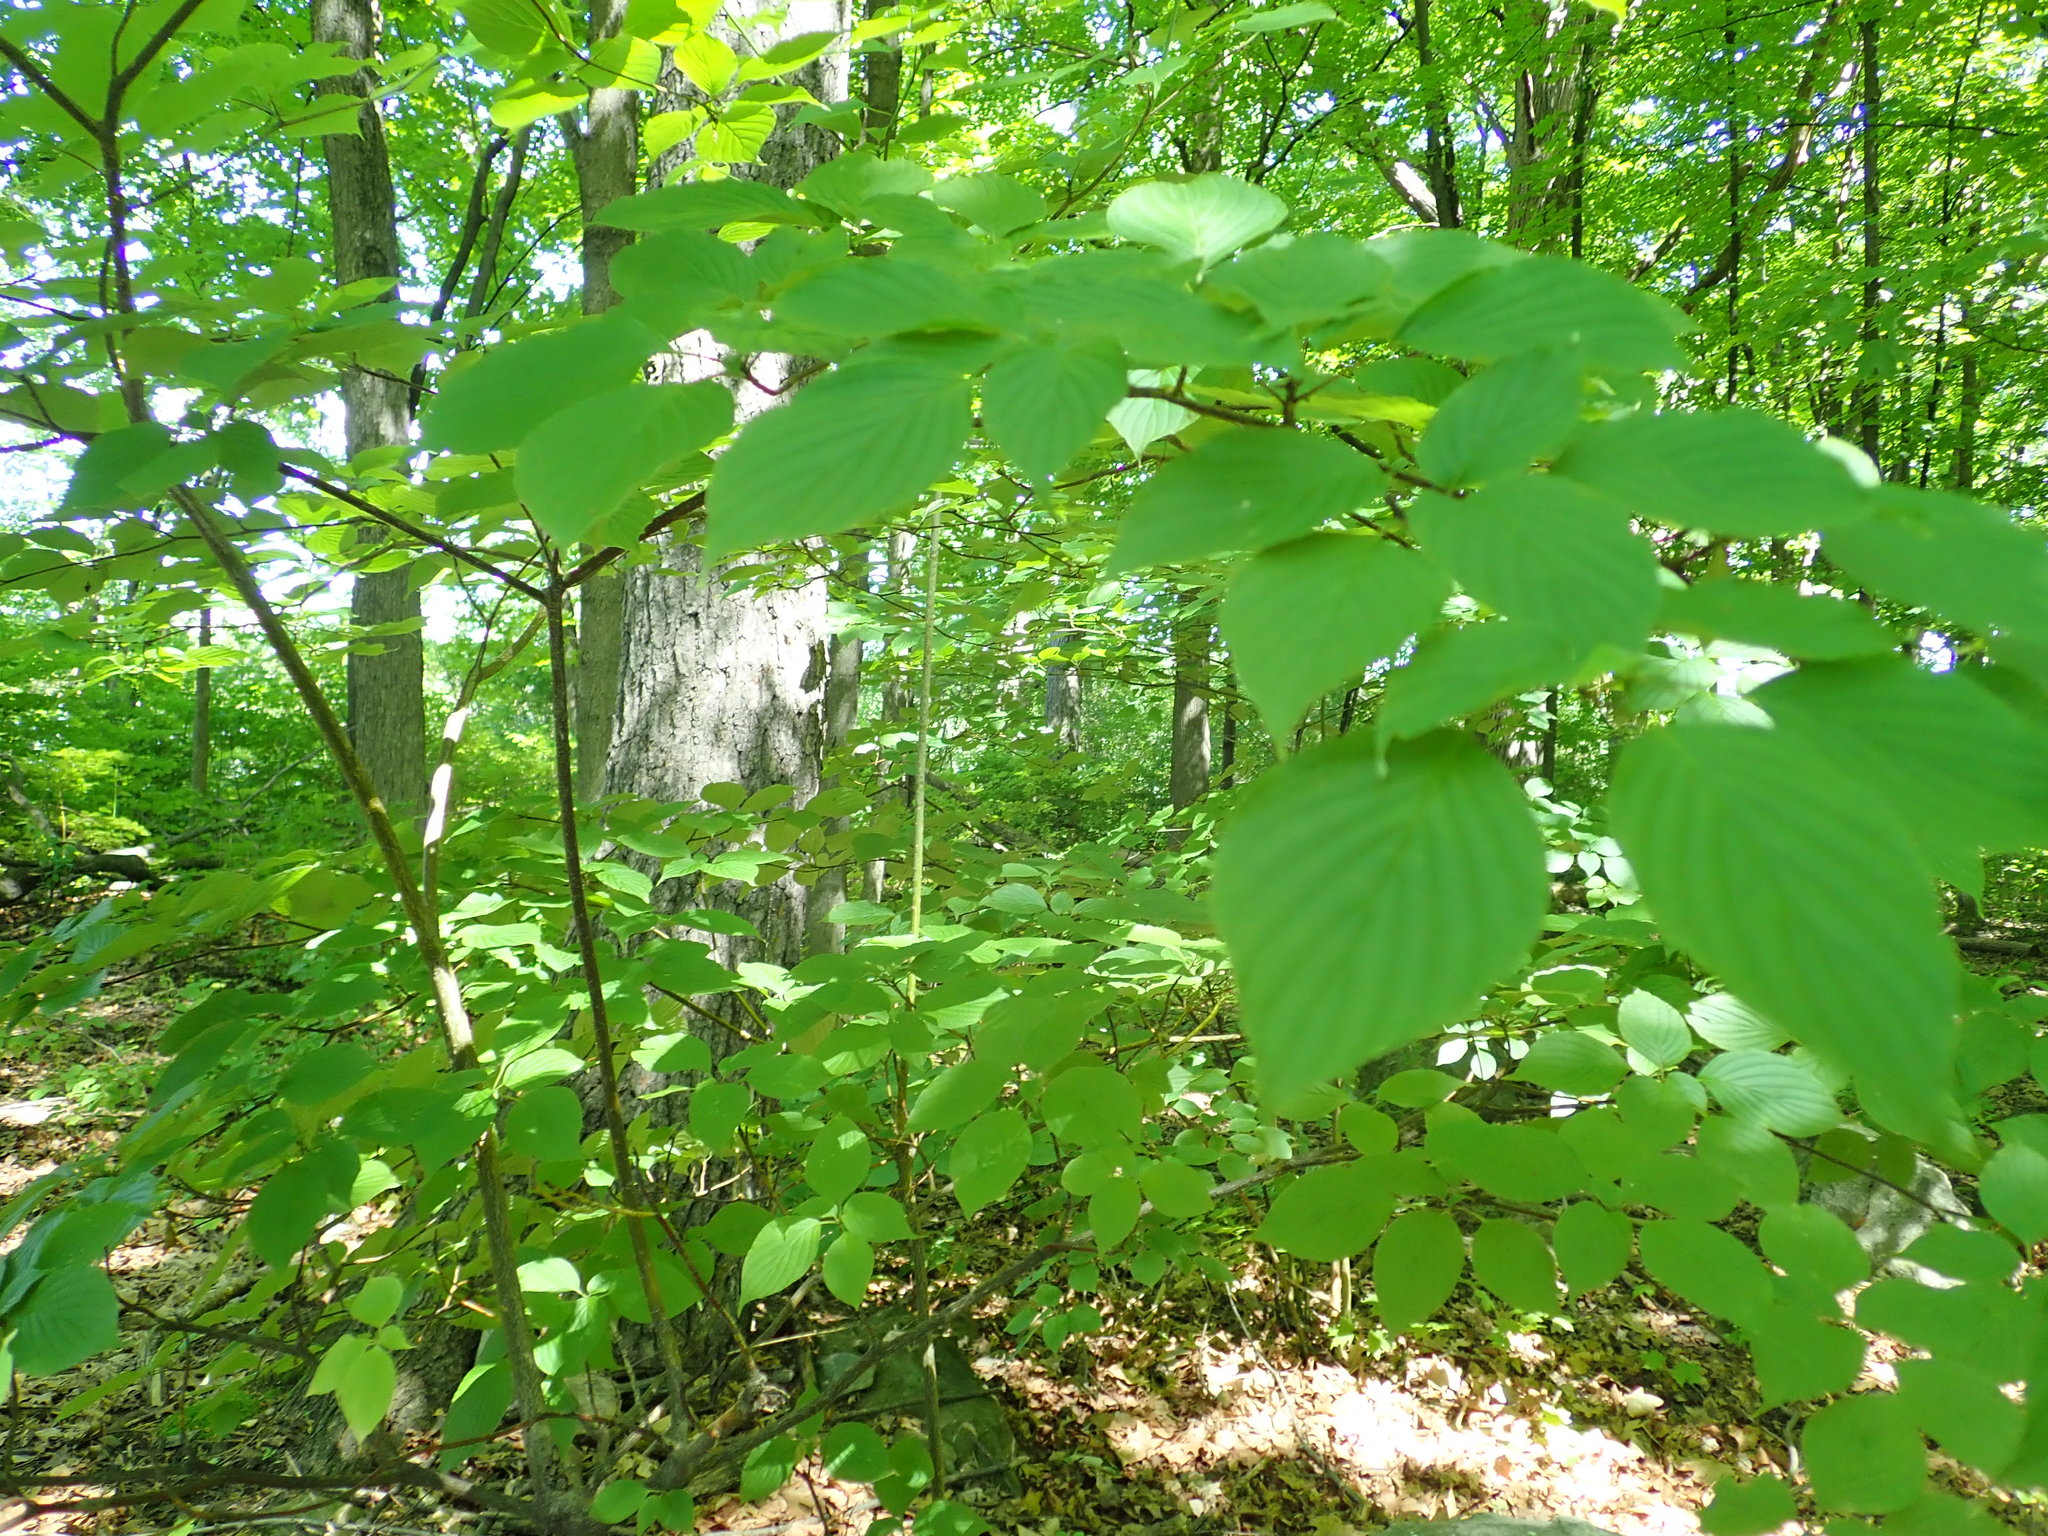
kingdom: Plantae
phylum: Tracheophyta
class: Magnoliopsida
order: Cornales
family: Cornaceae
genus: Cornus
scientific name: Cornus alternifolia
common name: Pagoda dogwood
